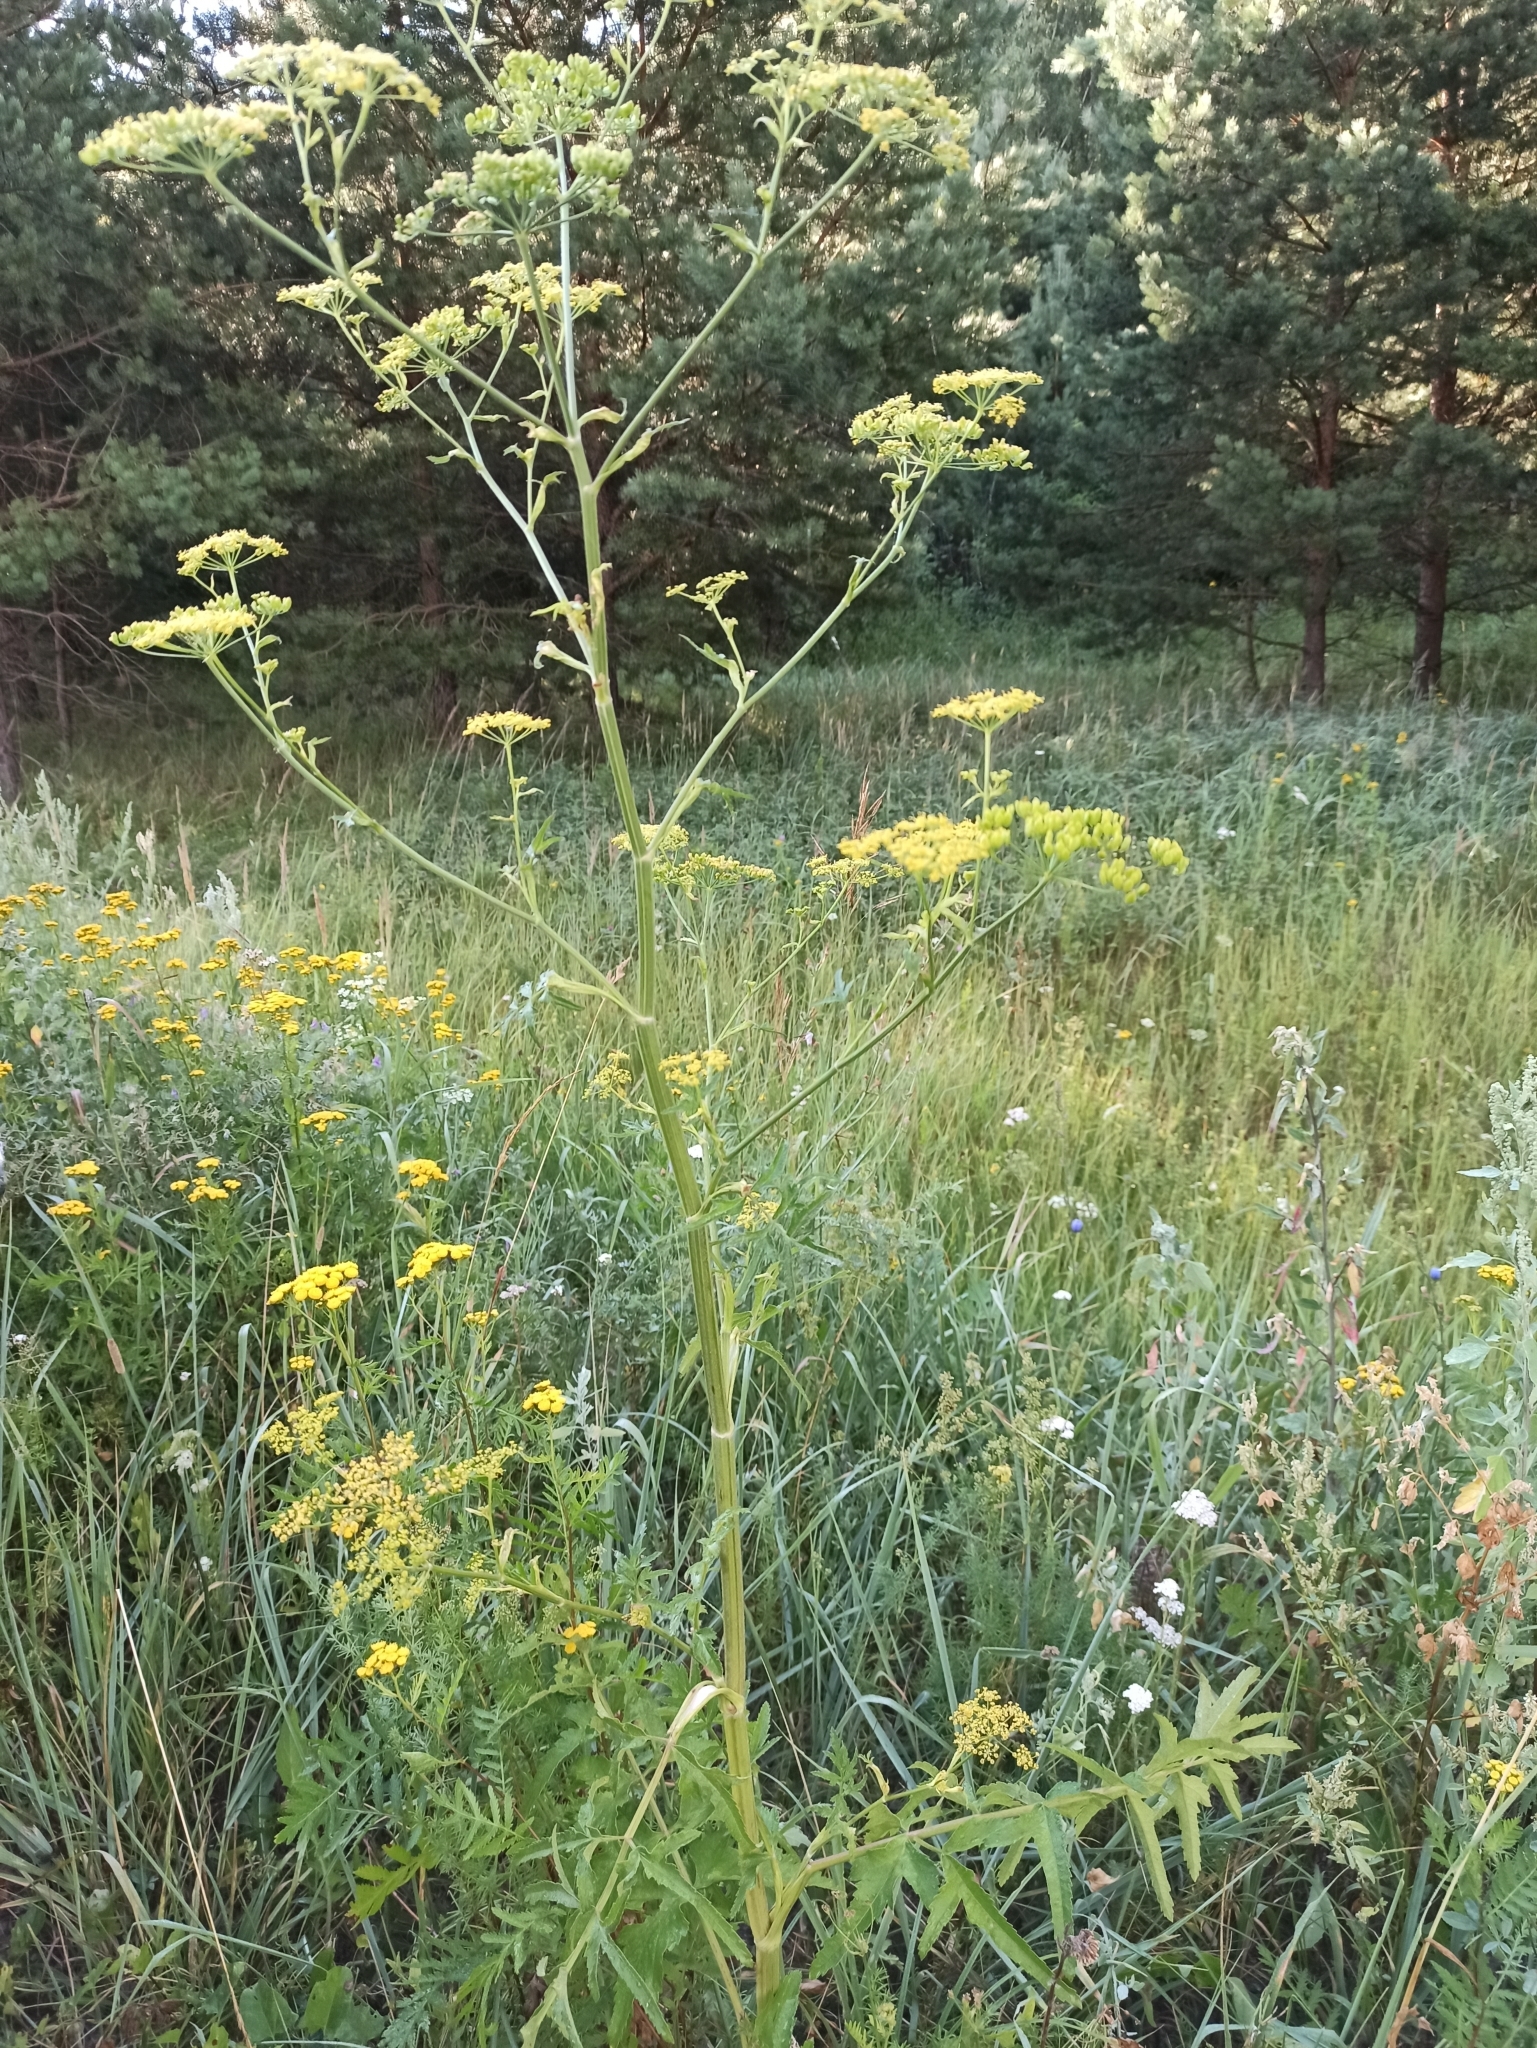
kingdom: Plantae
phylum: Tracheophyta
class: Magnoliopsida
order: Apiales
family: Apiaceae
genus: Pastinaca
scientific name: Pastinaca sativa
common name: Wild parsnip
